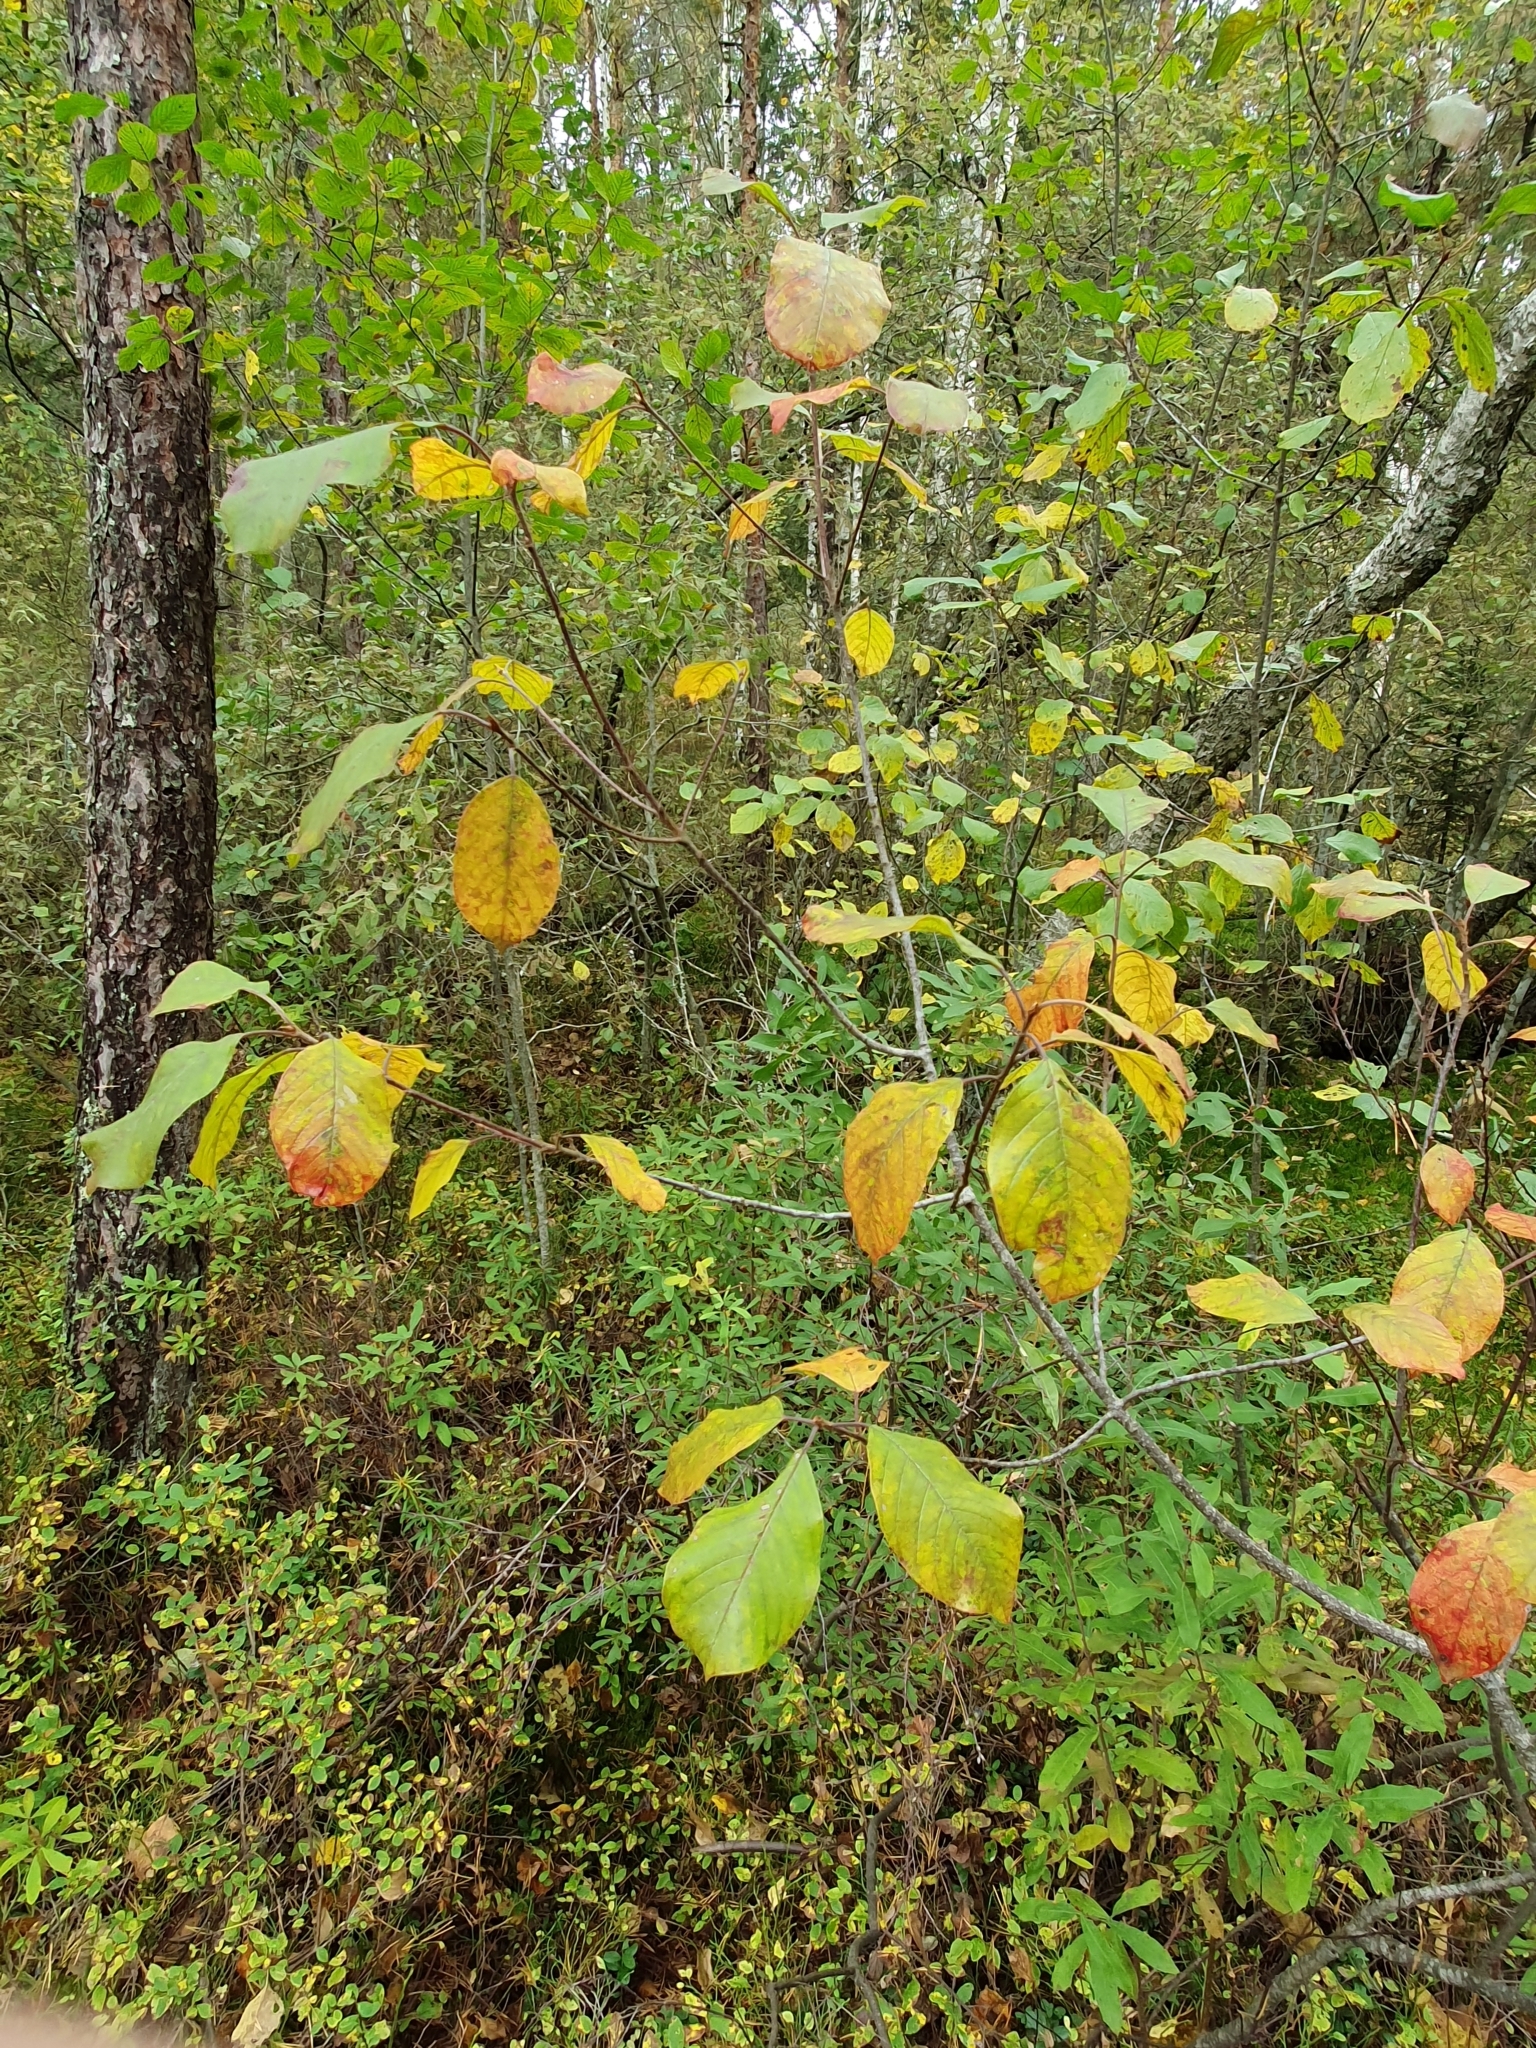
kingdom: Plantae
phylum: Tracheophyta
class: Magnoliopsida
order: Rosales
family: Rhamnaceae
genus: Frangula
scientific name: Frangula alnus
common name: Alder buckthorn
